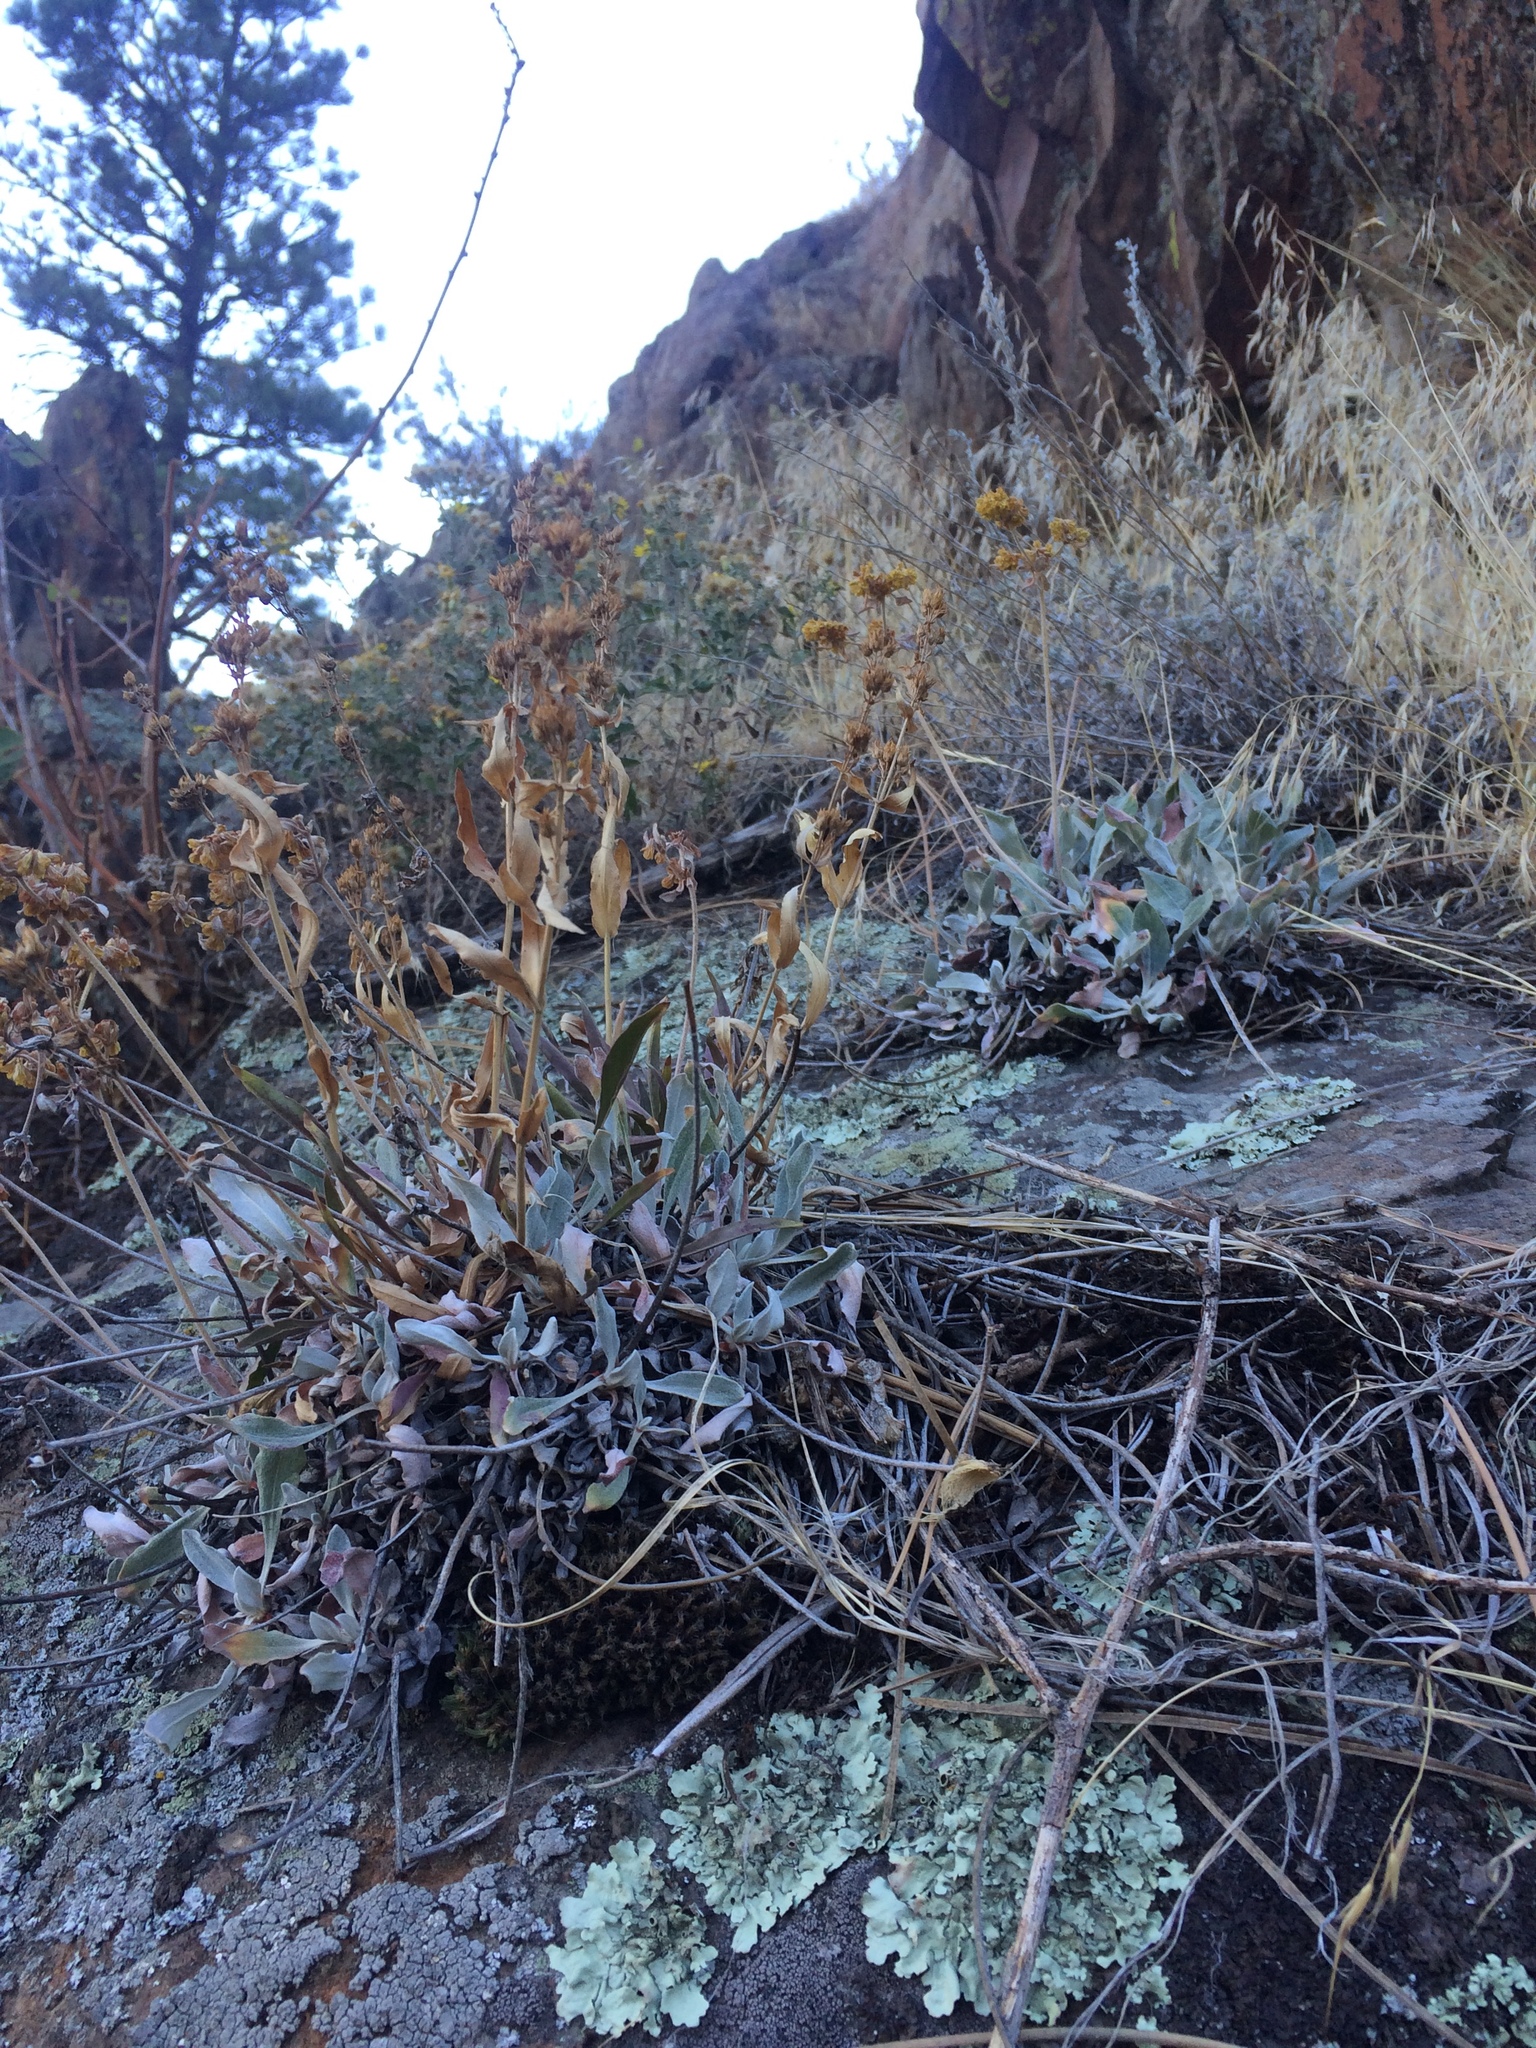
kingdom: Plantae
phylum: Tracheophyta
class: Magnoliopsida
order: Caryophyllales
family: Polygonaceae
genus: Eriogonum
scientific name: Eriogonum flavum
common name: Alpine golden wild buckwheat
